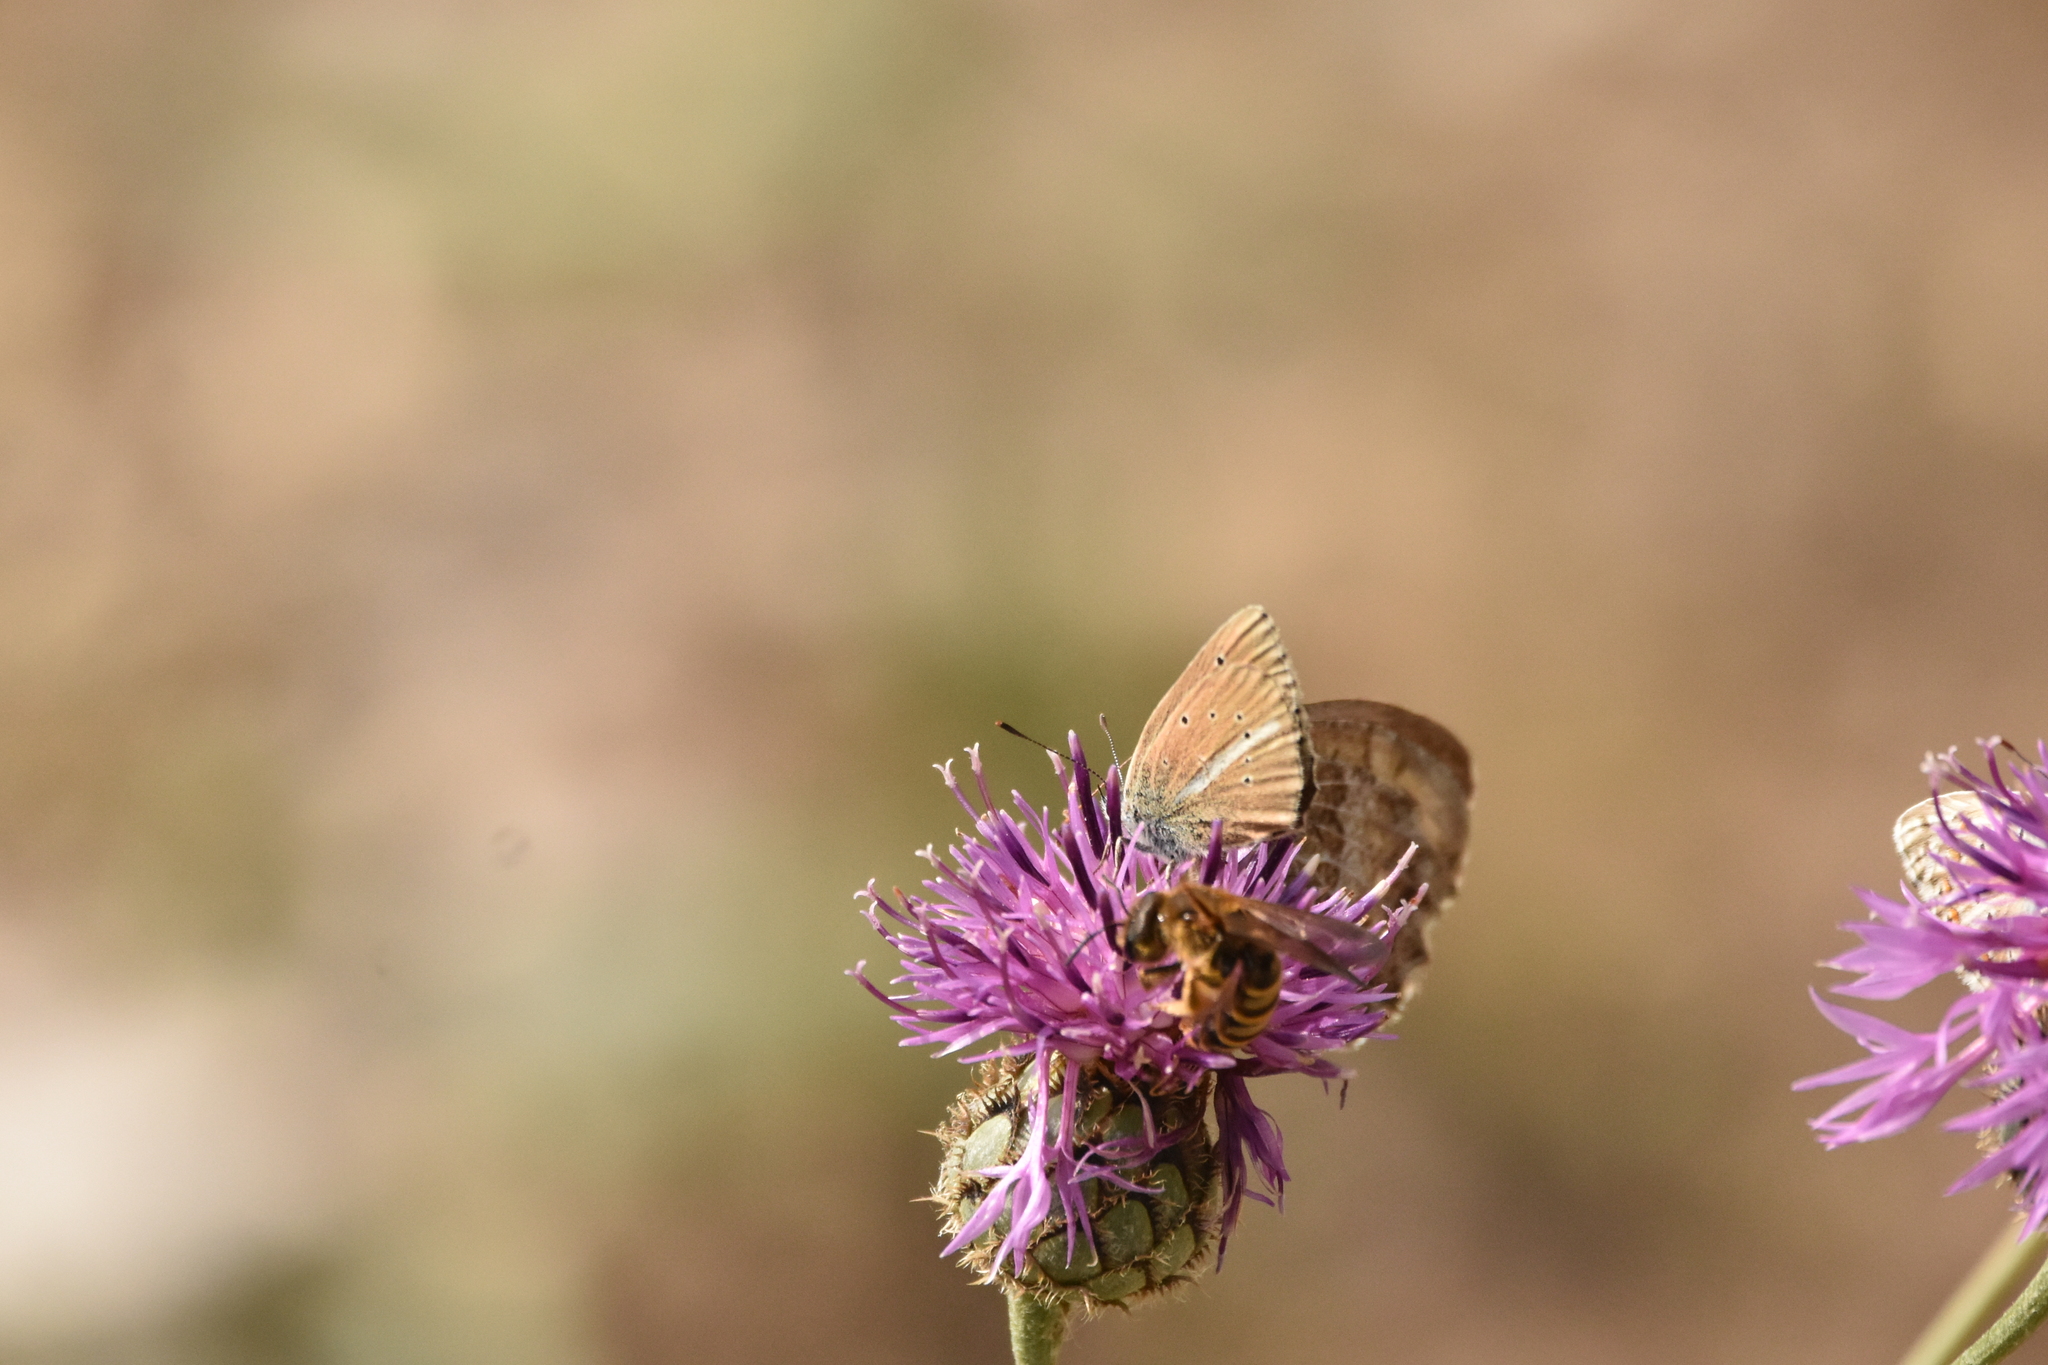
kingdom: Animalia
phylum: Arthropoda
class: Insecta
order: Lepidoptera
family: Lycaenidae
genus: Agrodiaetus
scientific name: Agrodiaetus damon
